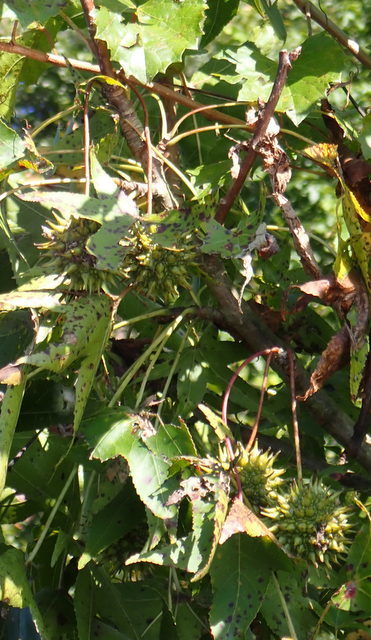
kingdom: Plantae
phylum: Tracheophyta
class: Magnoliopsida
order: Saxifragales
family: Altingiaceae
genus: Liquidambar
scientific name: Liquidambar styraciflua
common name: Sweet gum
